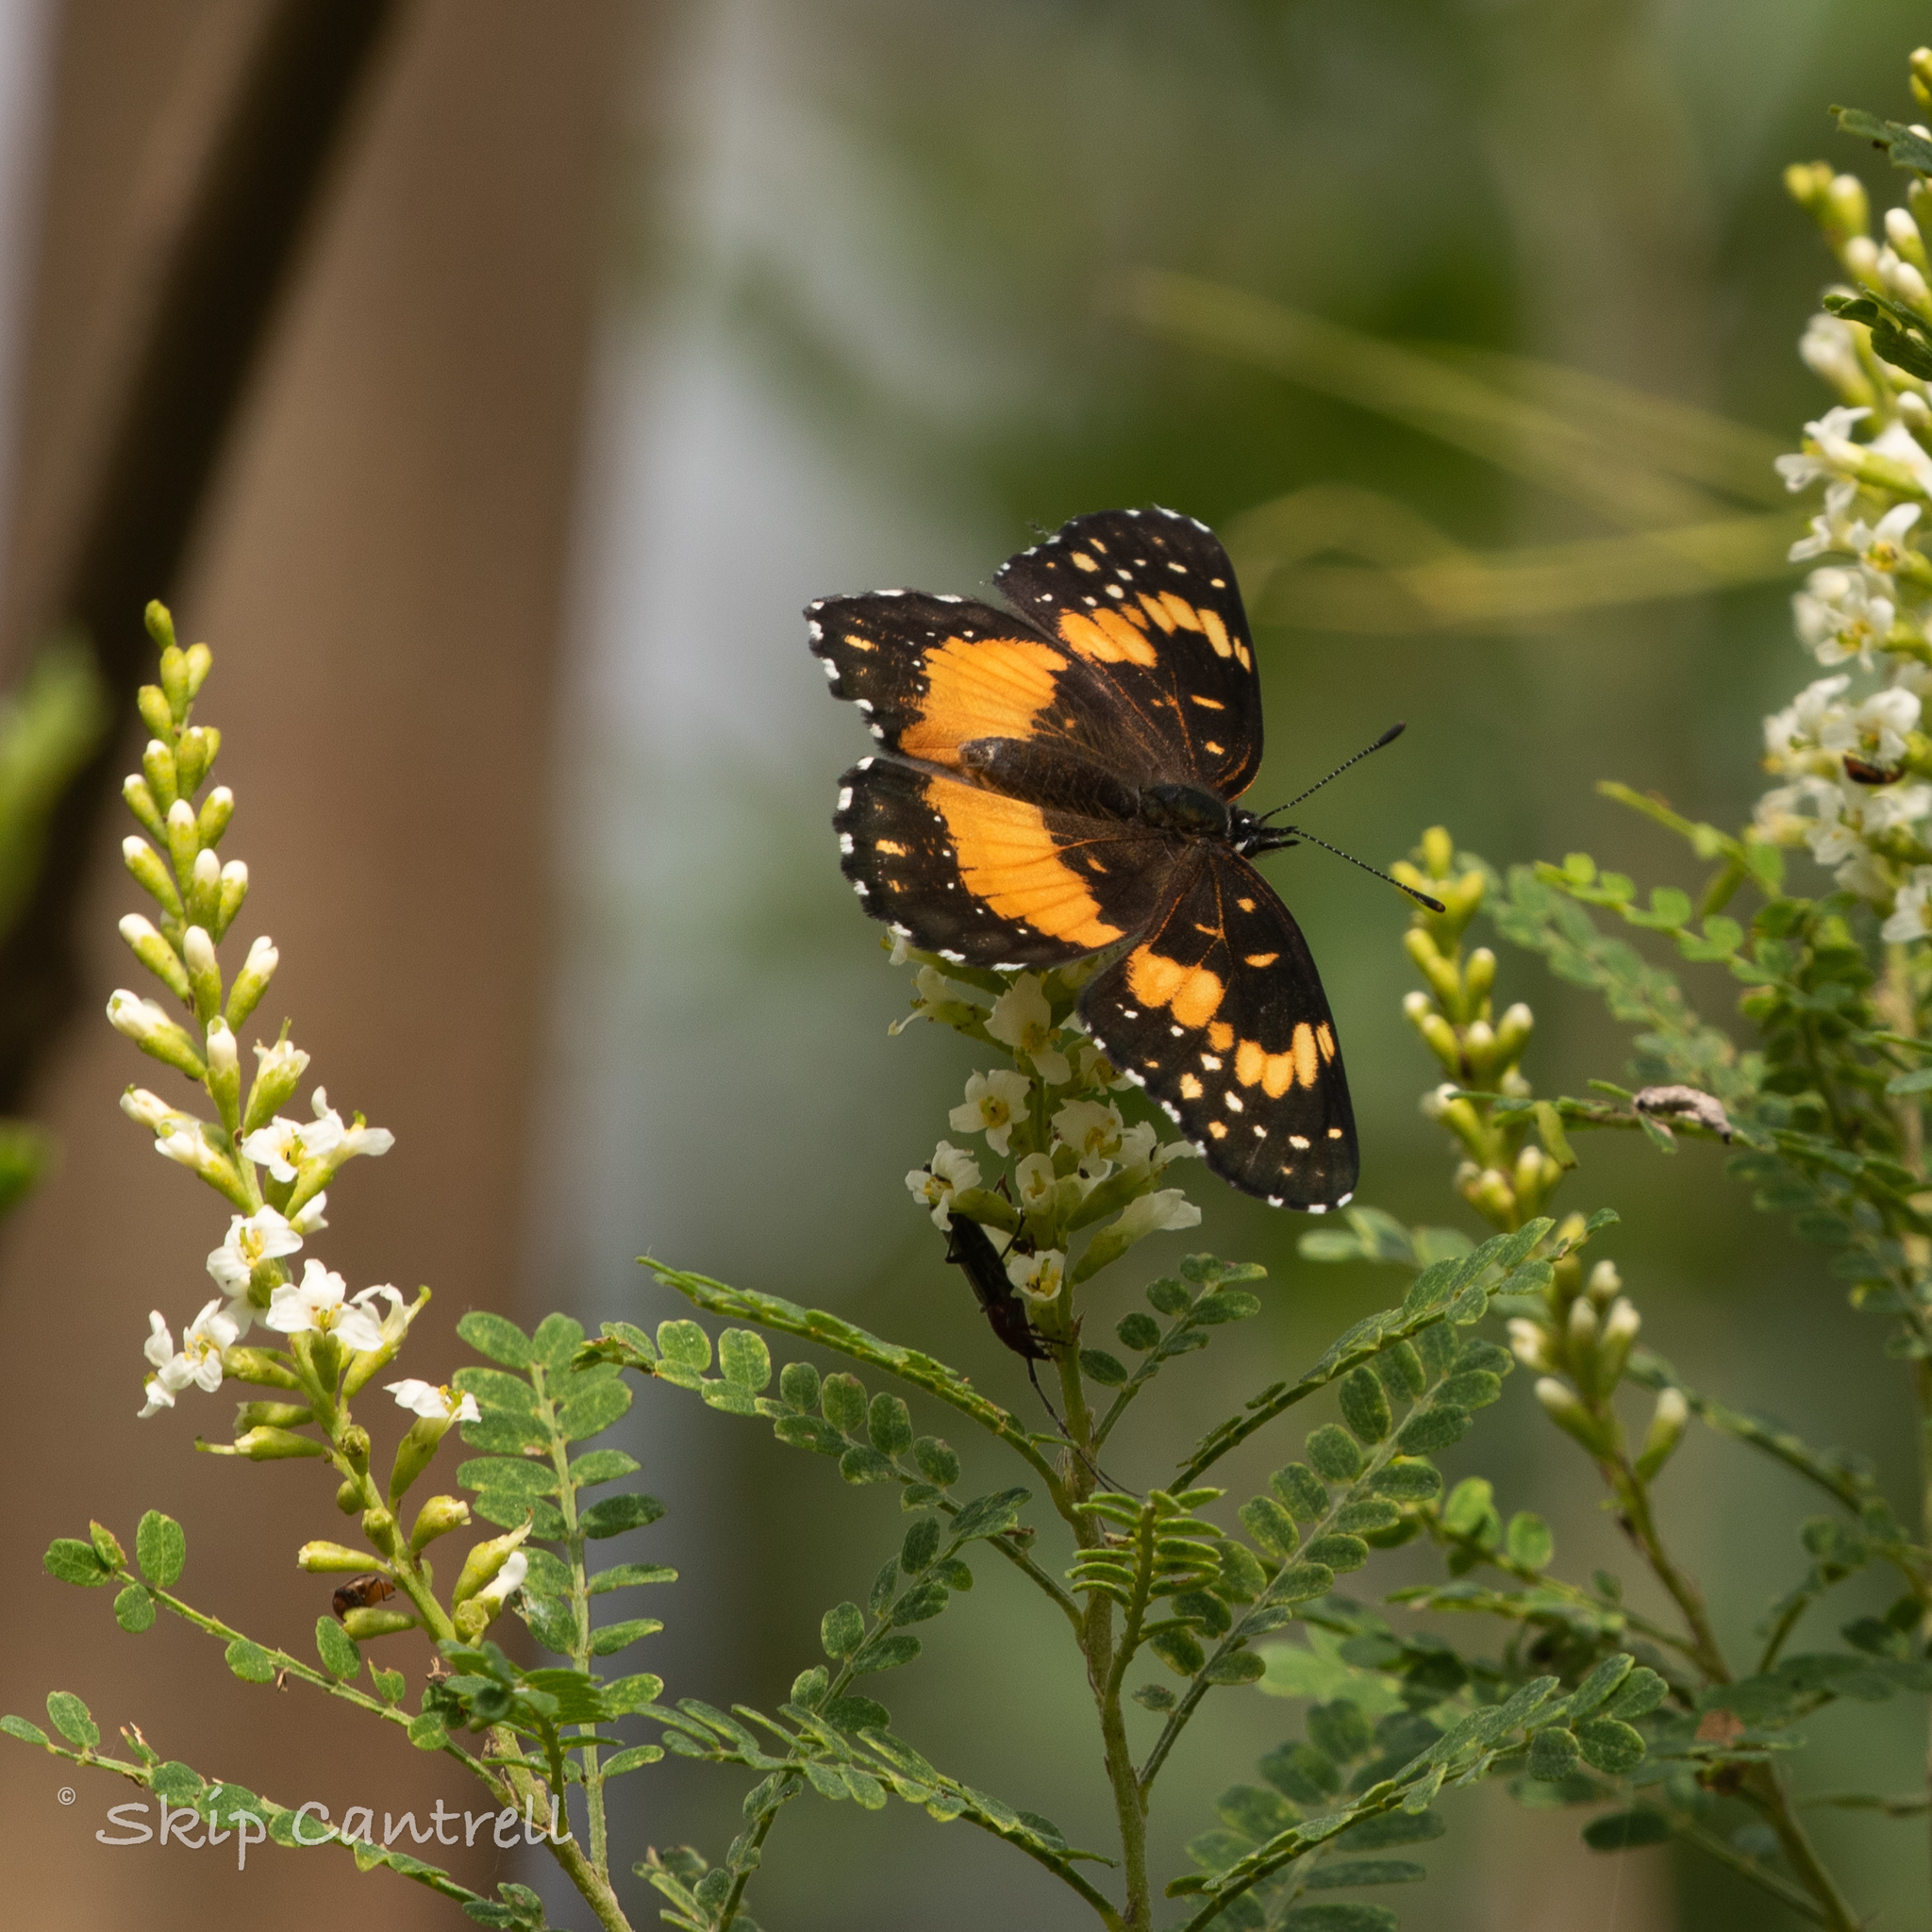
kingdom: Animalia
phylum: Arthropoda
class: Insecta
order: Lepidoptera
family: Nymphalidae
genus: Chlosyne
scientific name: Chlosyne lacinia
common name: Bordered patch
